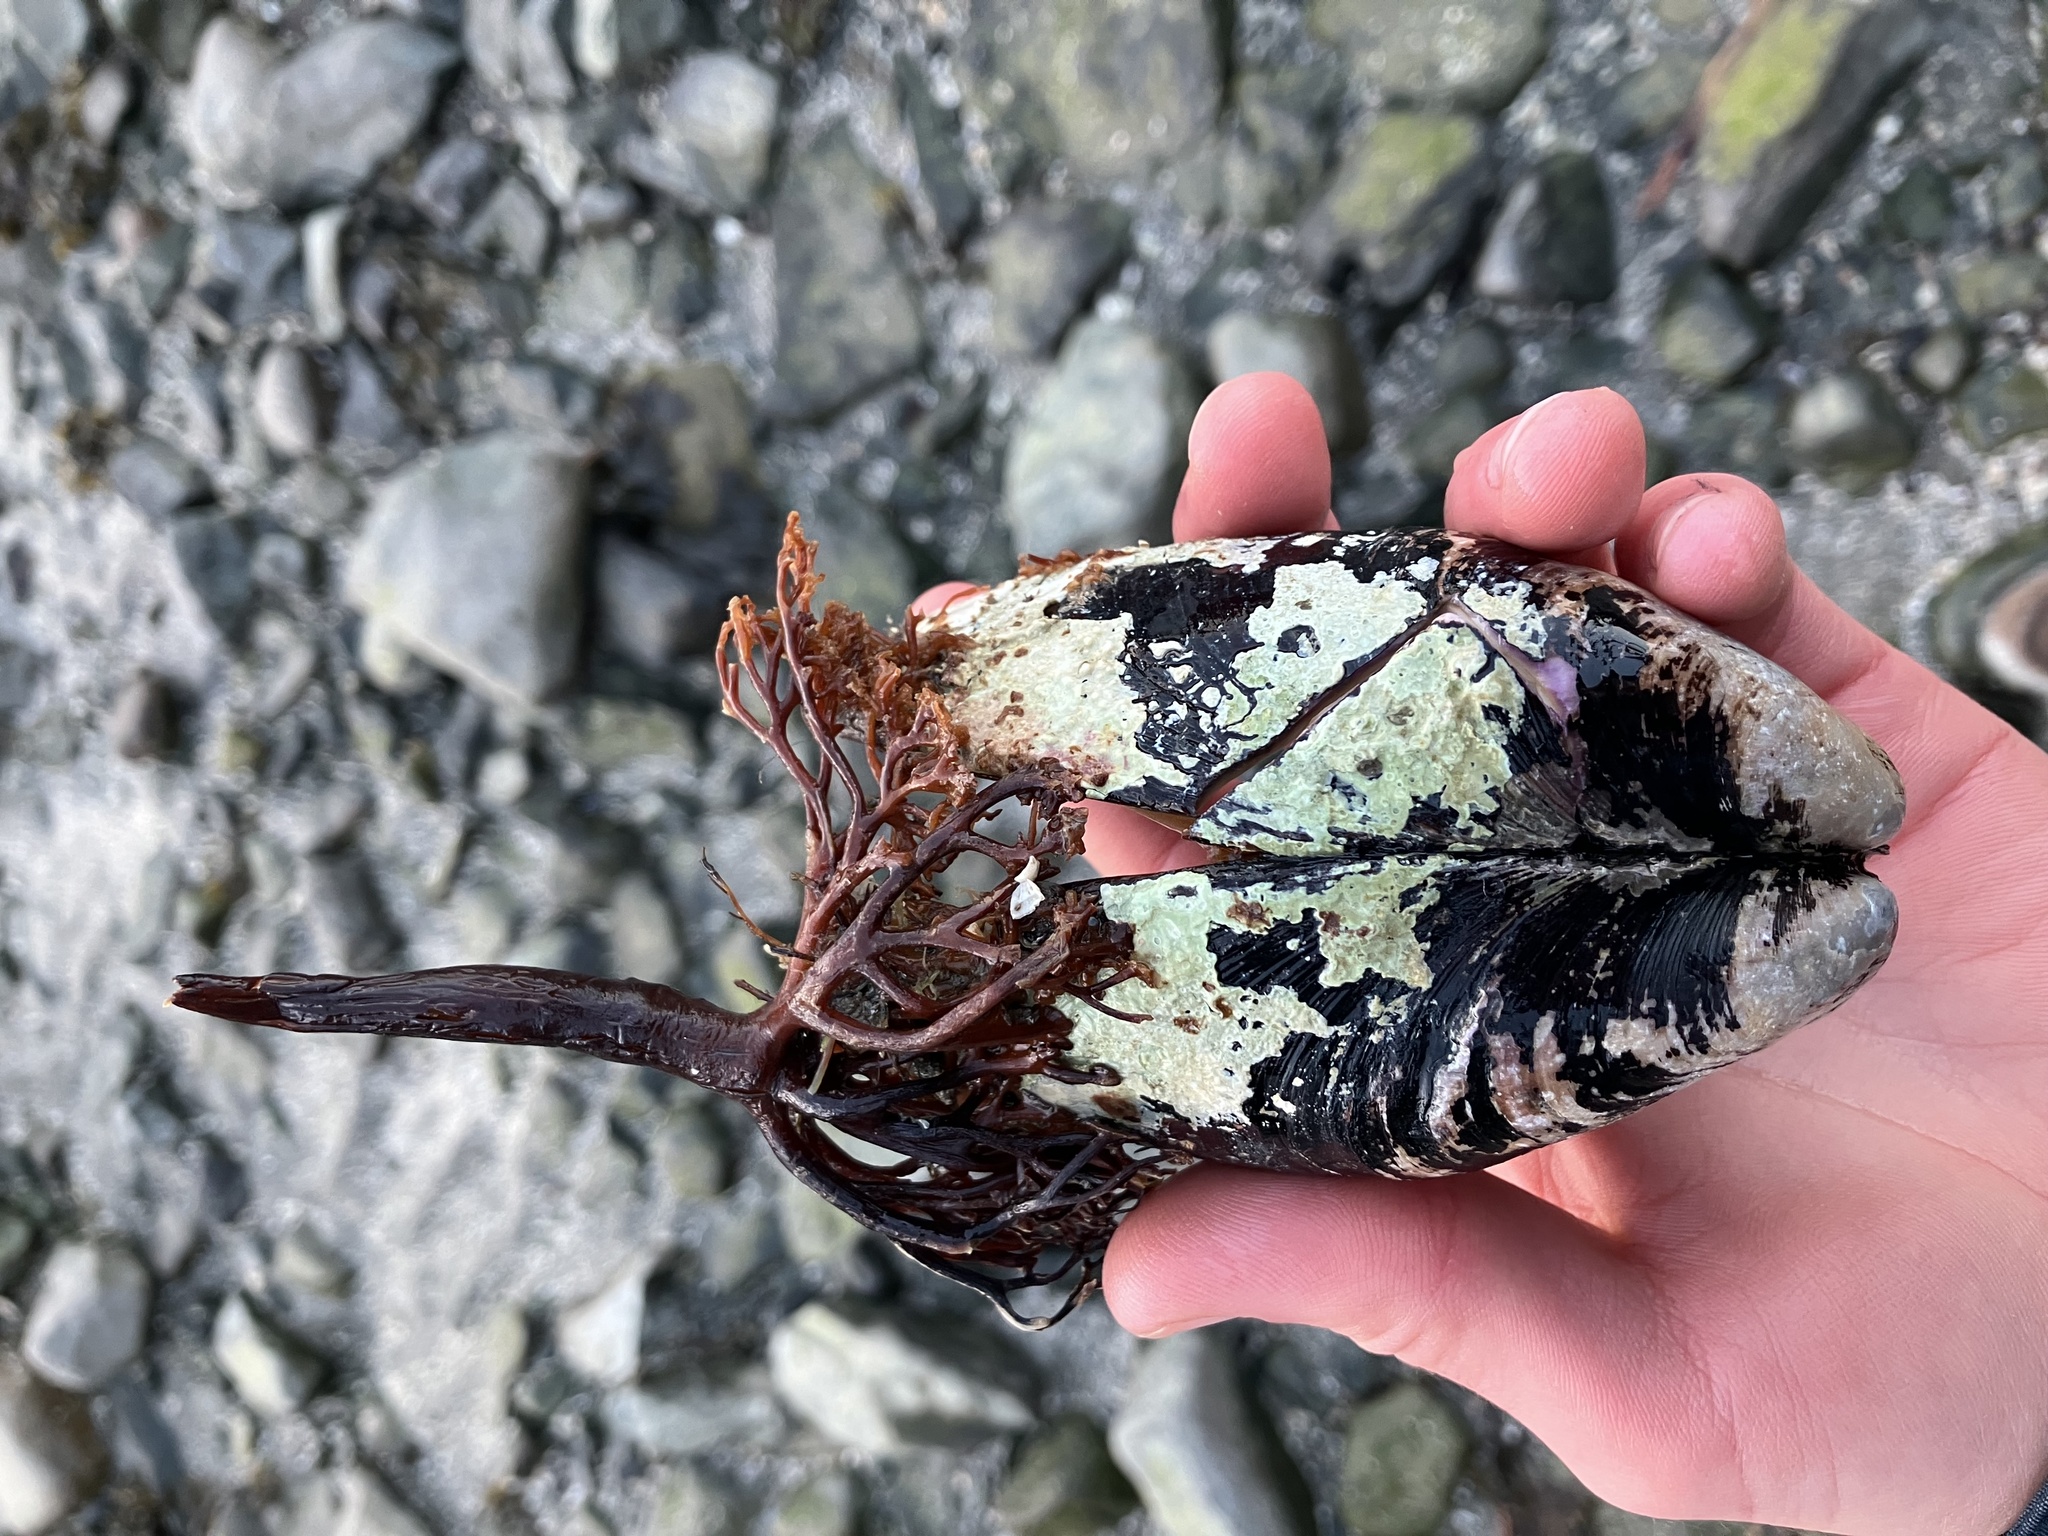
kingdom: Animalia
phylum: Mollusca
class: Bivalvia
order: Mytilida
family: Mytilidae
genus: Modiolus
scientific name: Modiolus modiolus
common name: Horse-mussel
